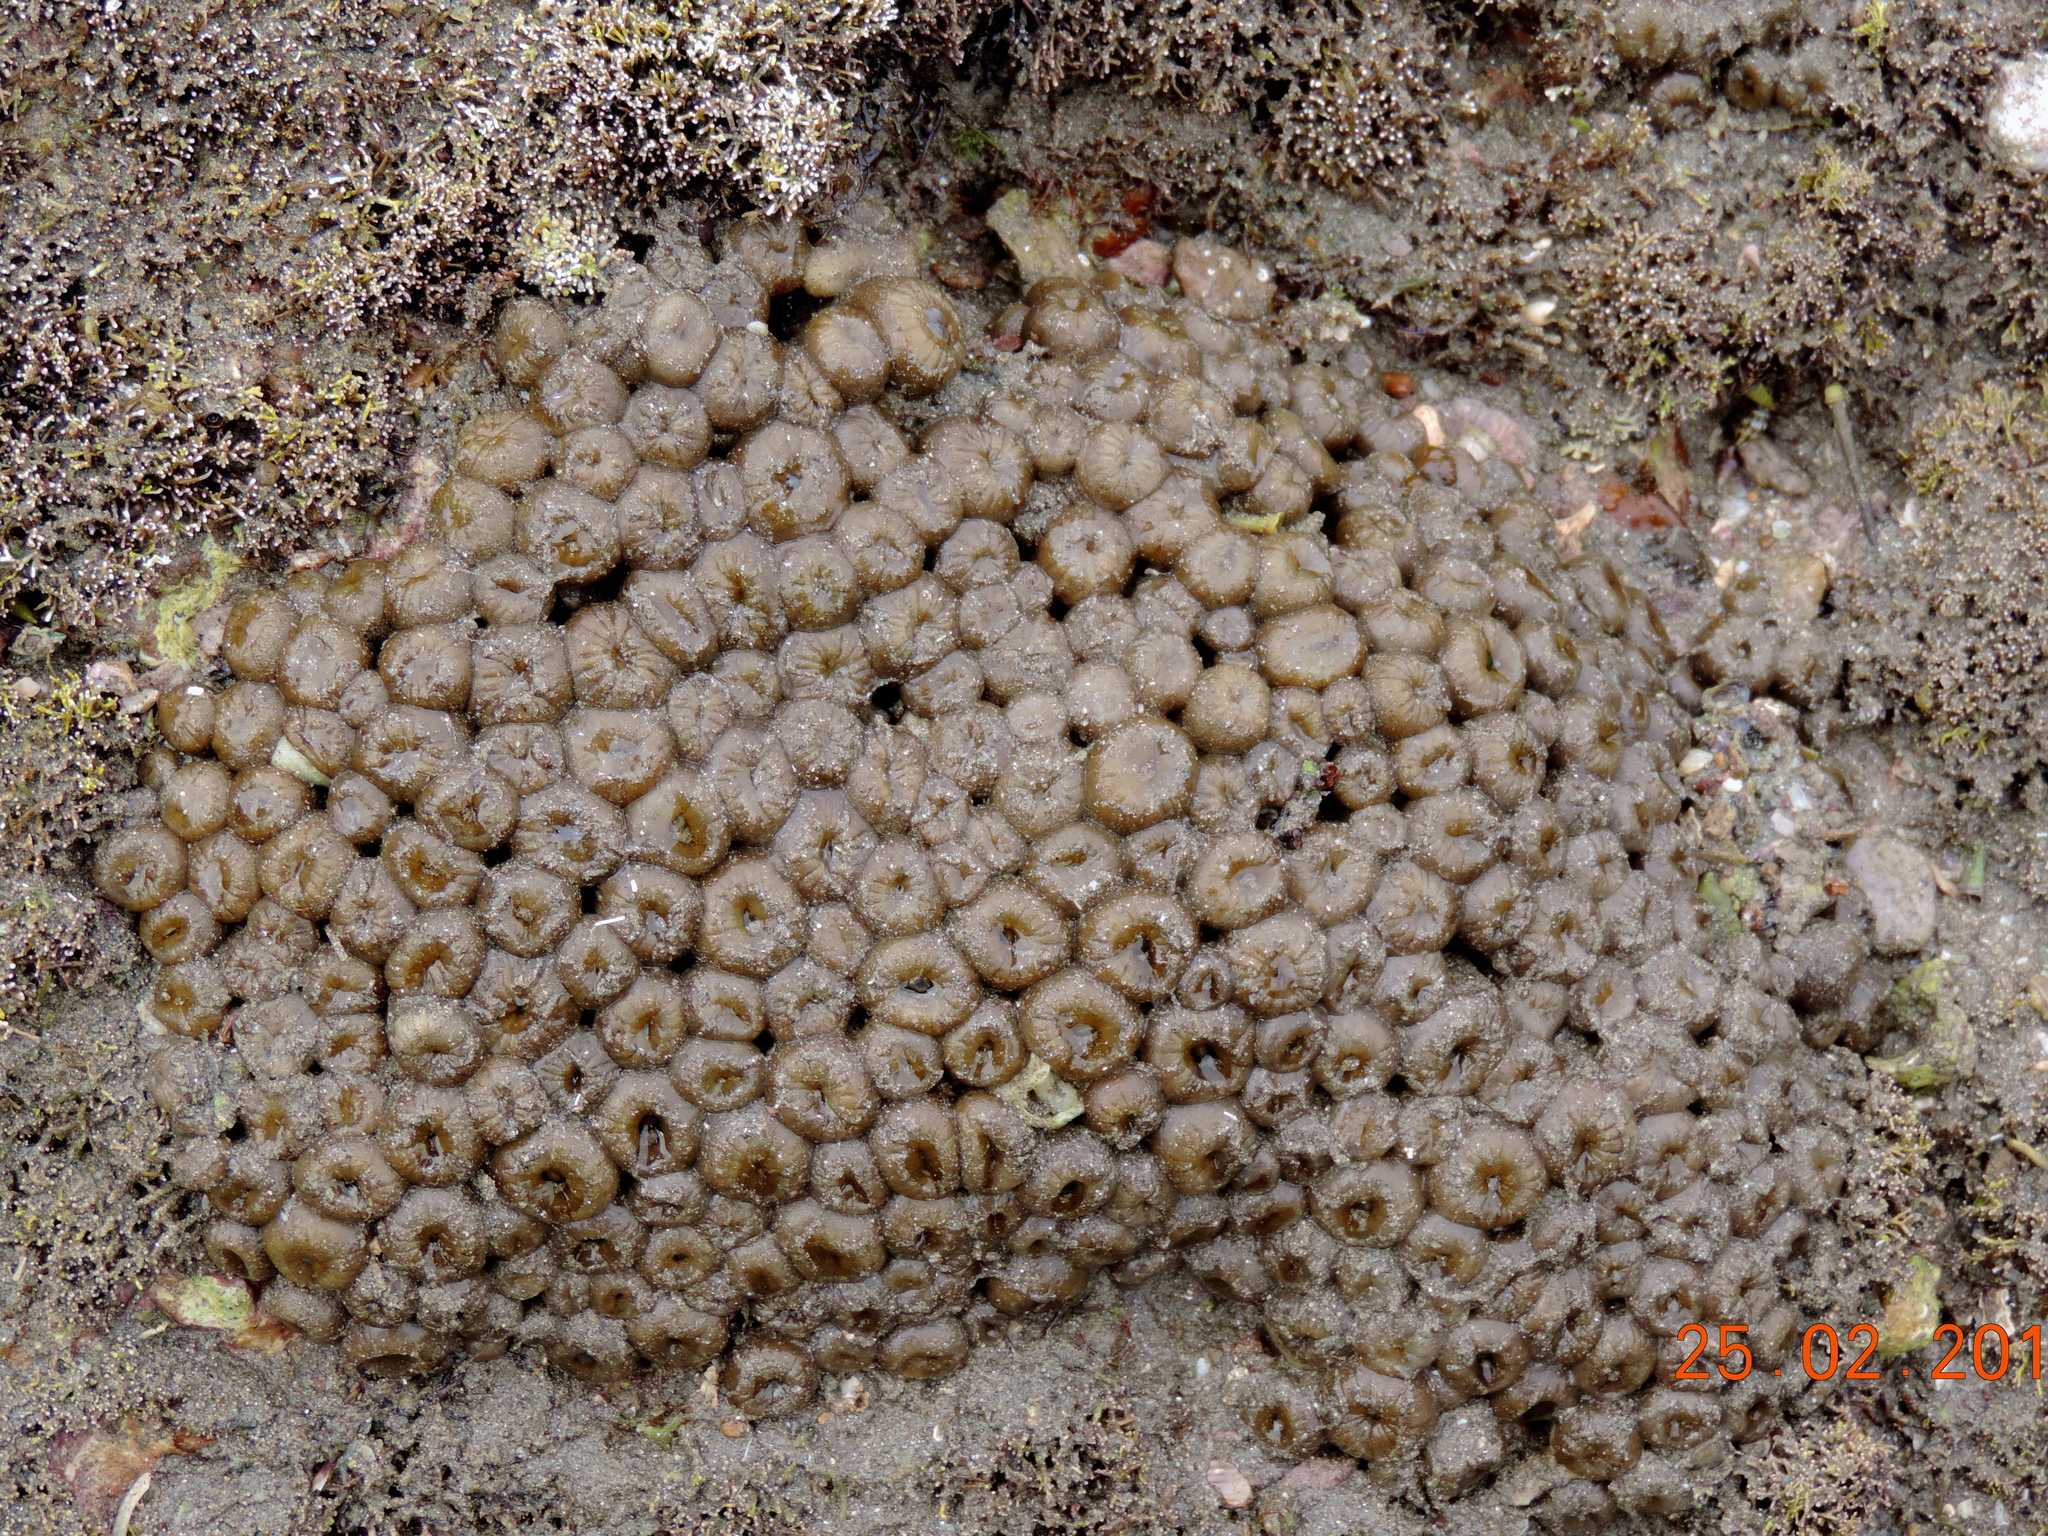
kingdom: Animalia
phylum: Cnidaria
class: Anthozoa
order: Zoantharia
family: Sphenopidae
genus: Palythoa
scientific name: Palythoa
